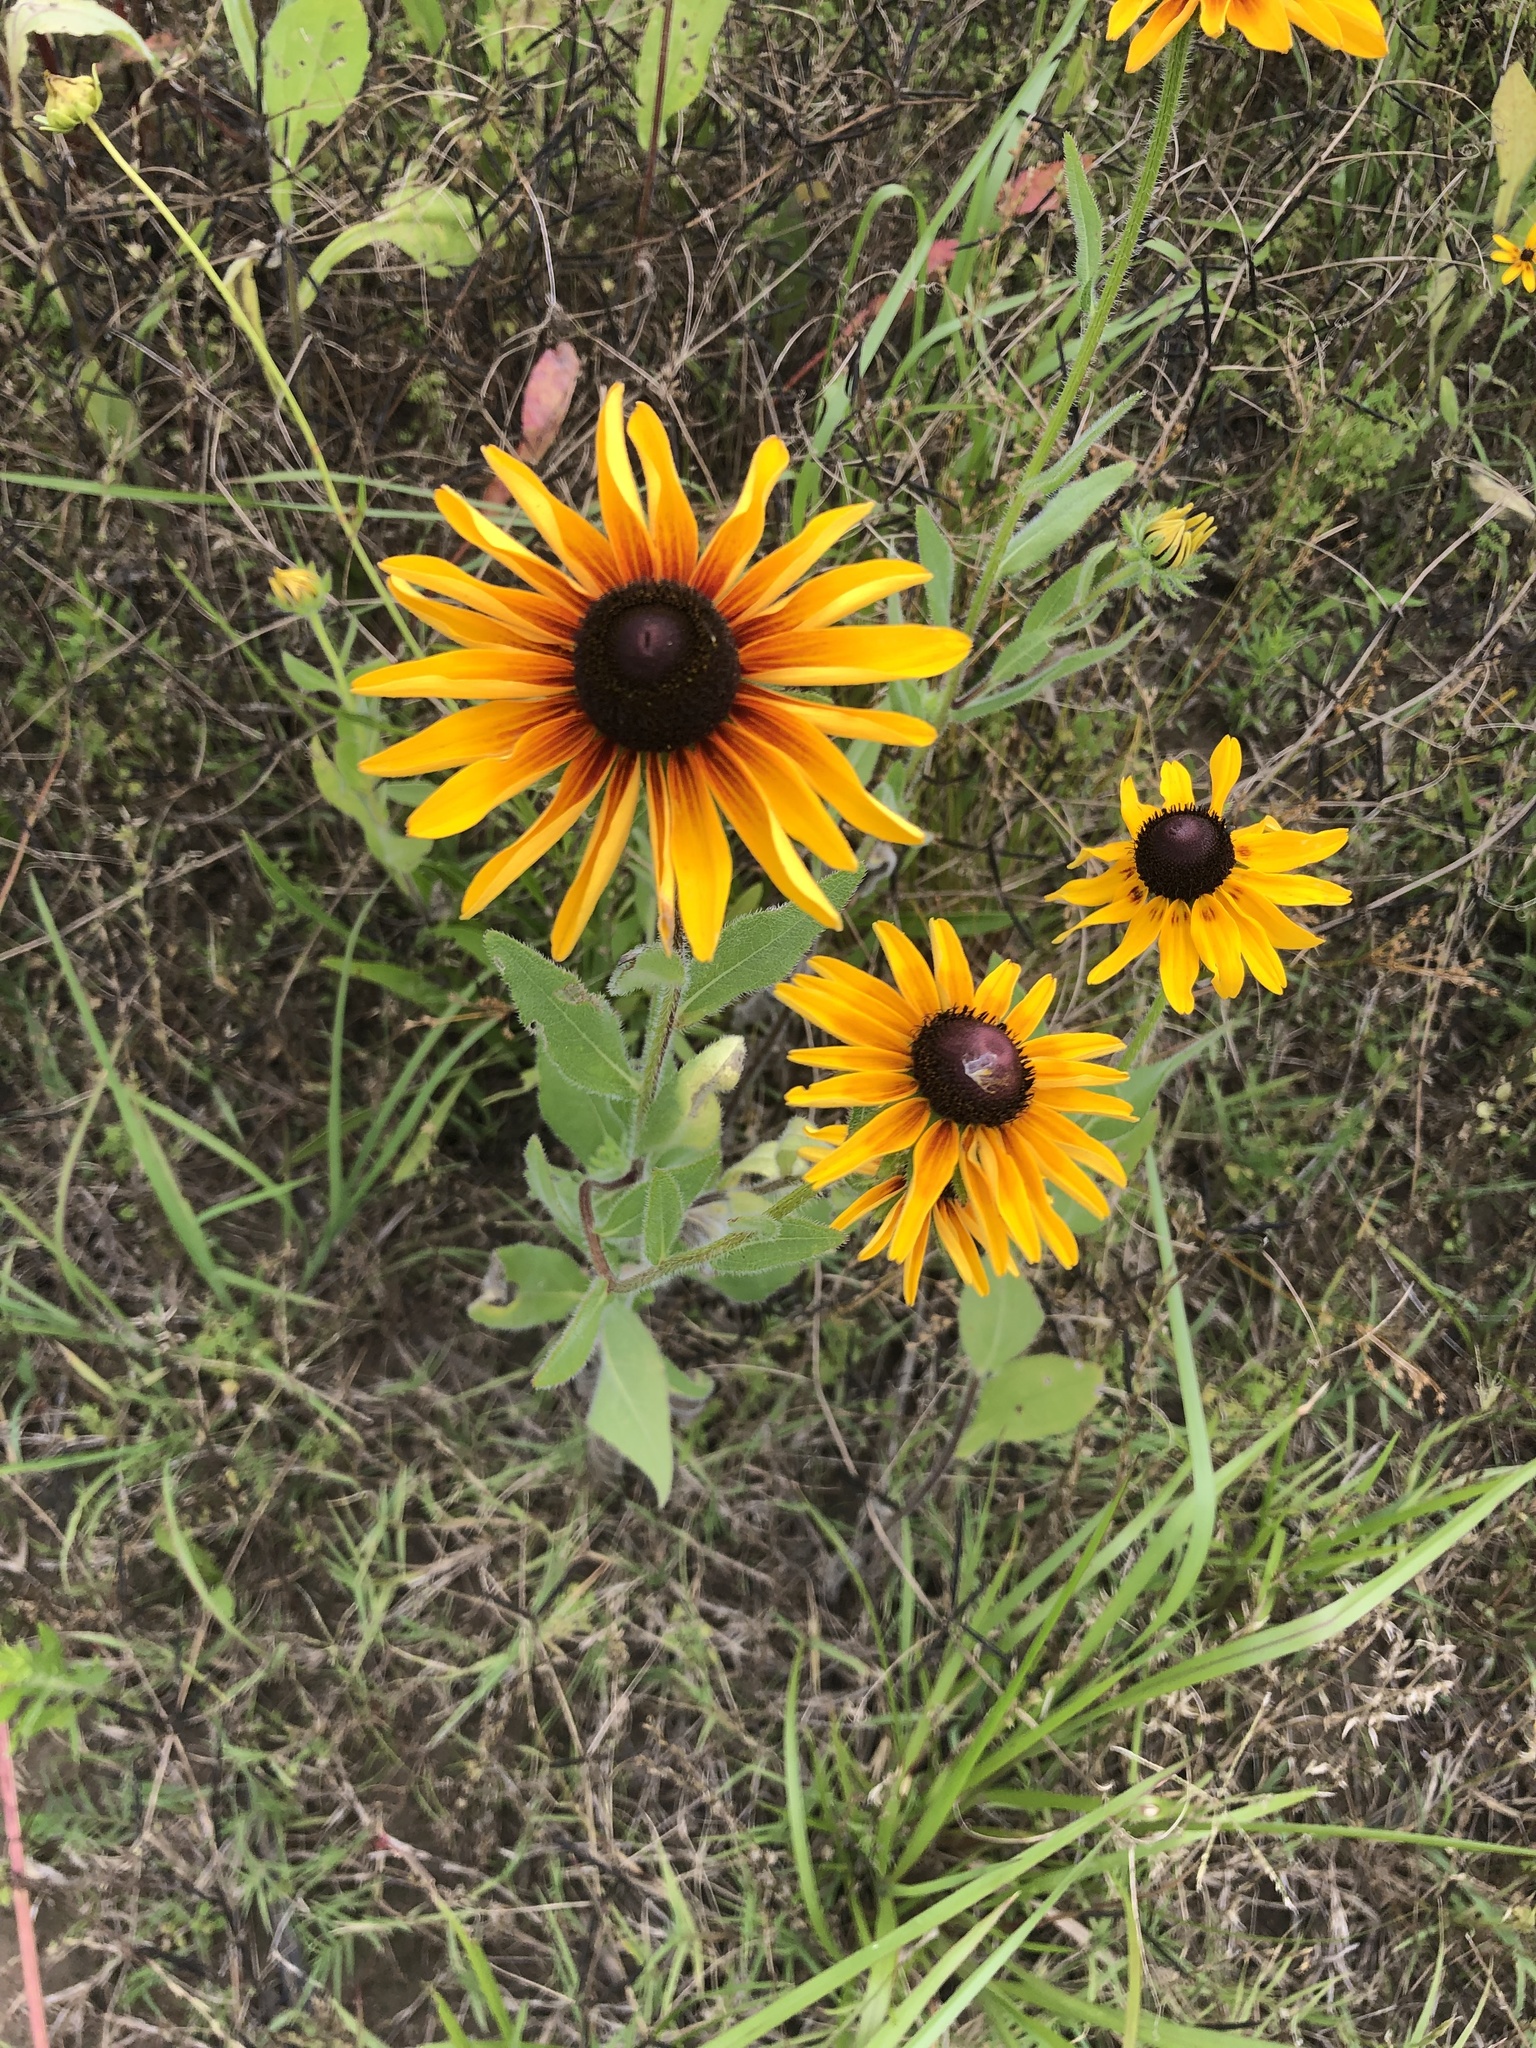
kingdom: Plantae
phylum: Tracheophyta
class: Magnoliopsida
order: Asterales
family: Asteraceae
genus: Rudbeckia
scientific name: Rudbeckia hirta
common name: Black-eyed-susan
